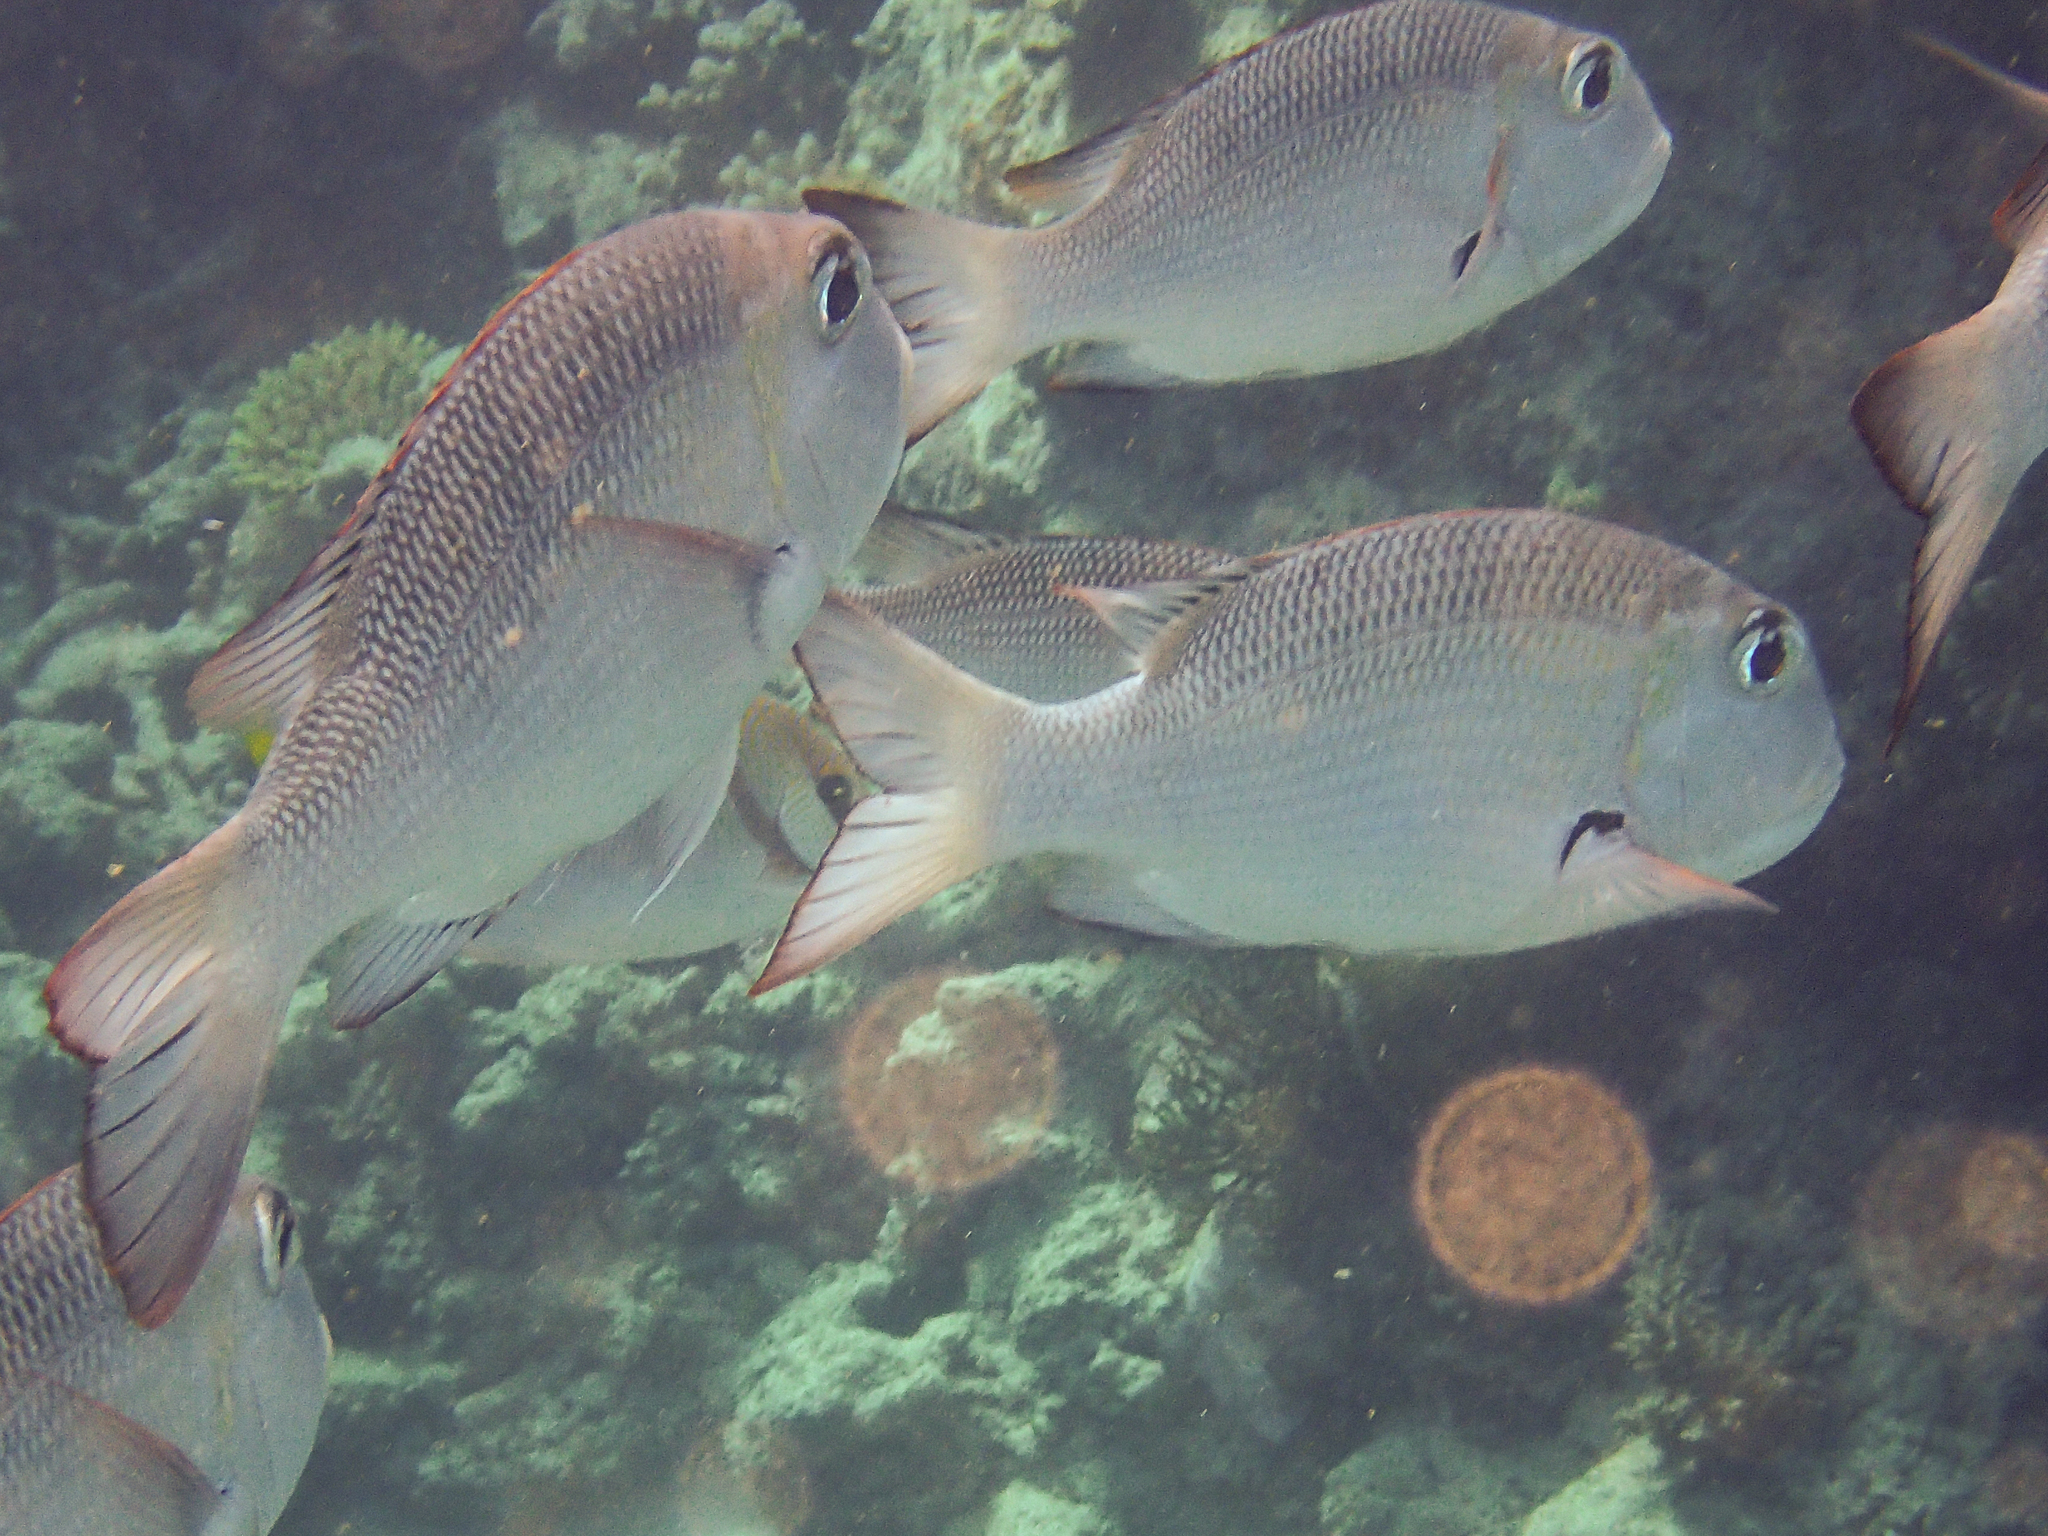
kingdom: Animalia
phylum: Chordata
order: Perciformes
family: Lethrinidae
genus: Monotaxis
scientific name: Monotaxis grandoculis
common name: Bigeye emperor
